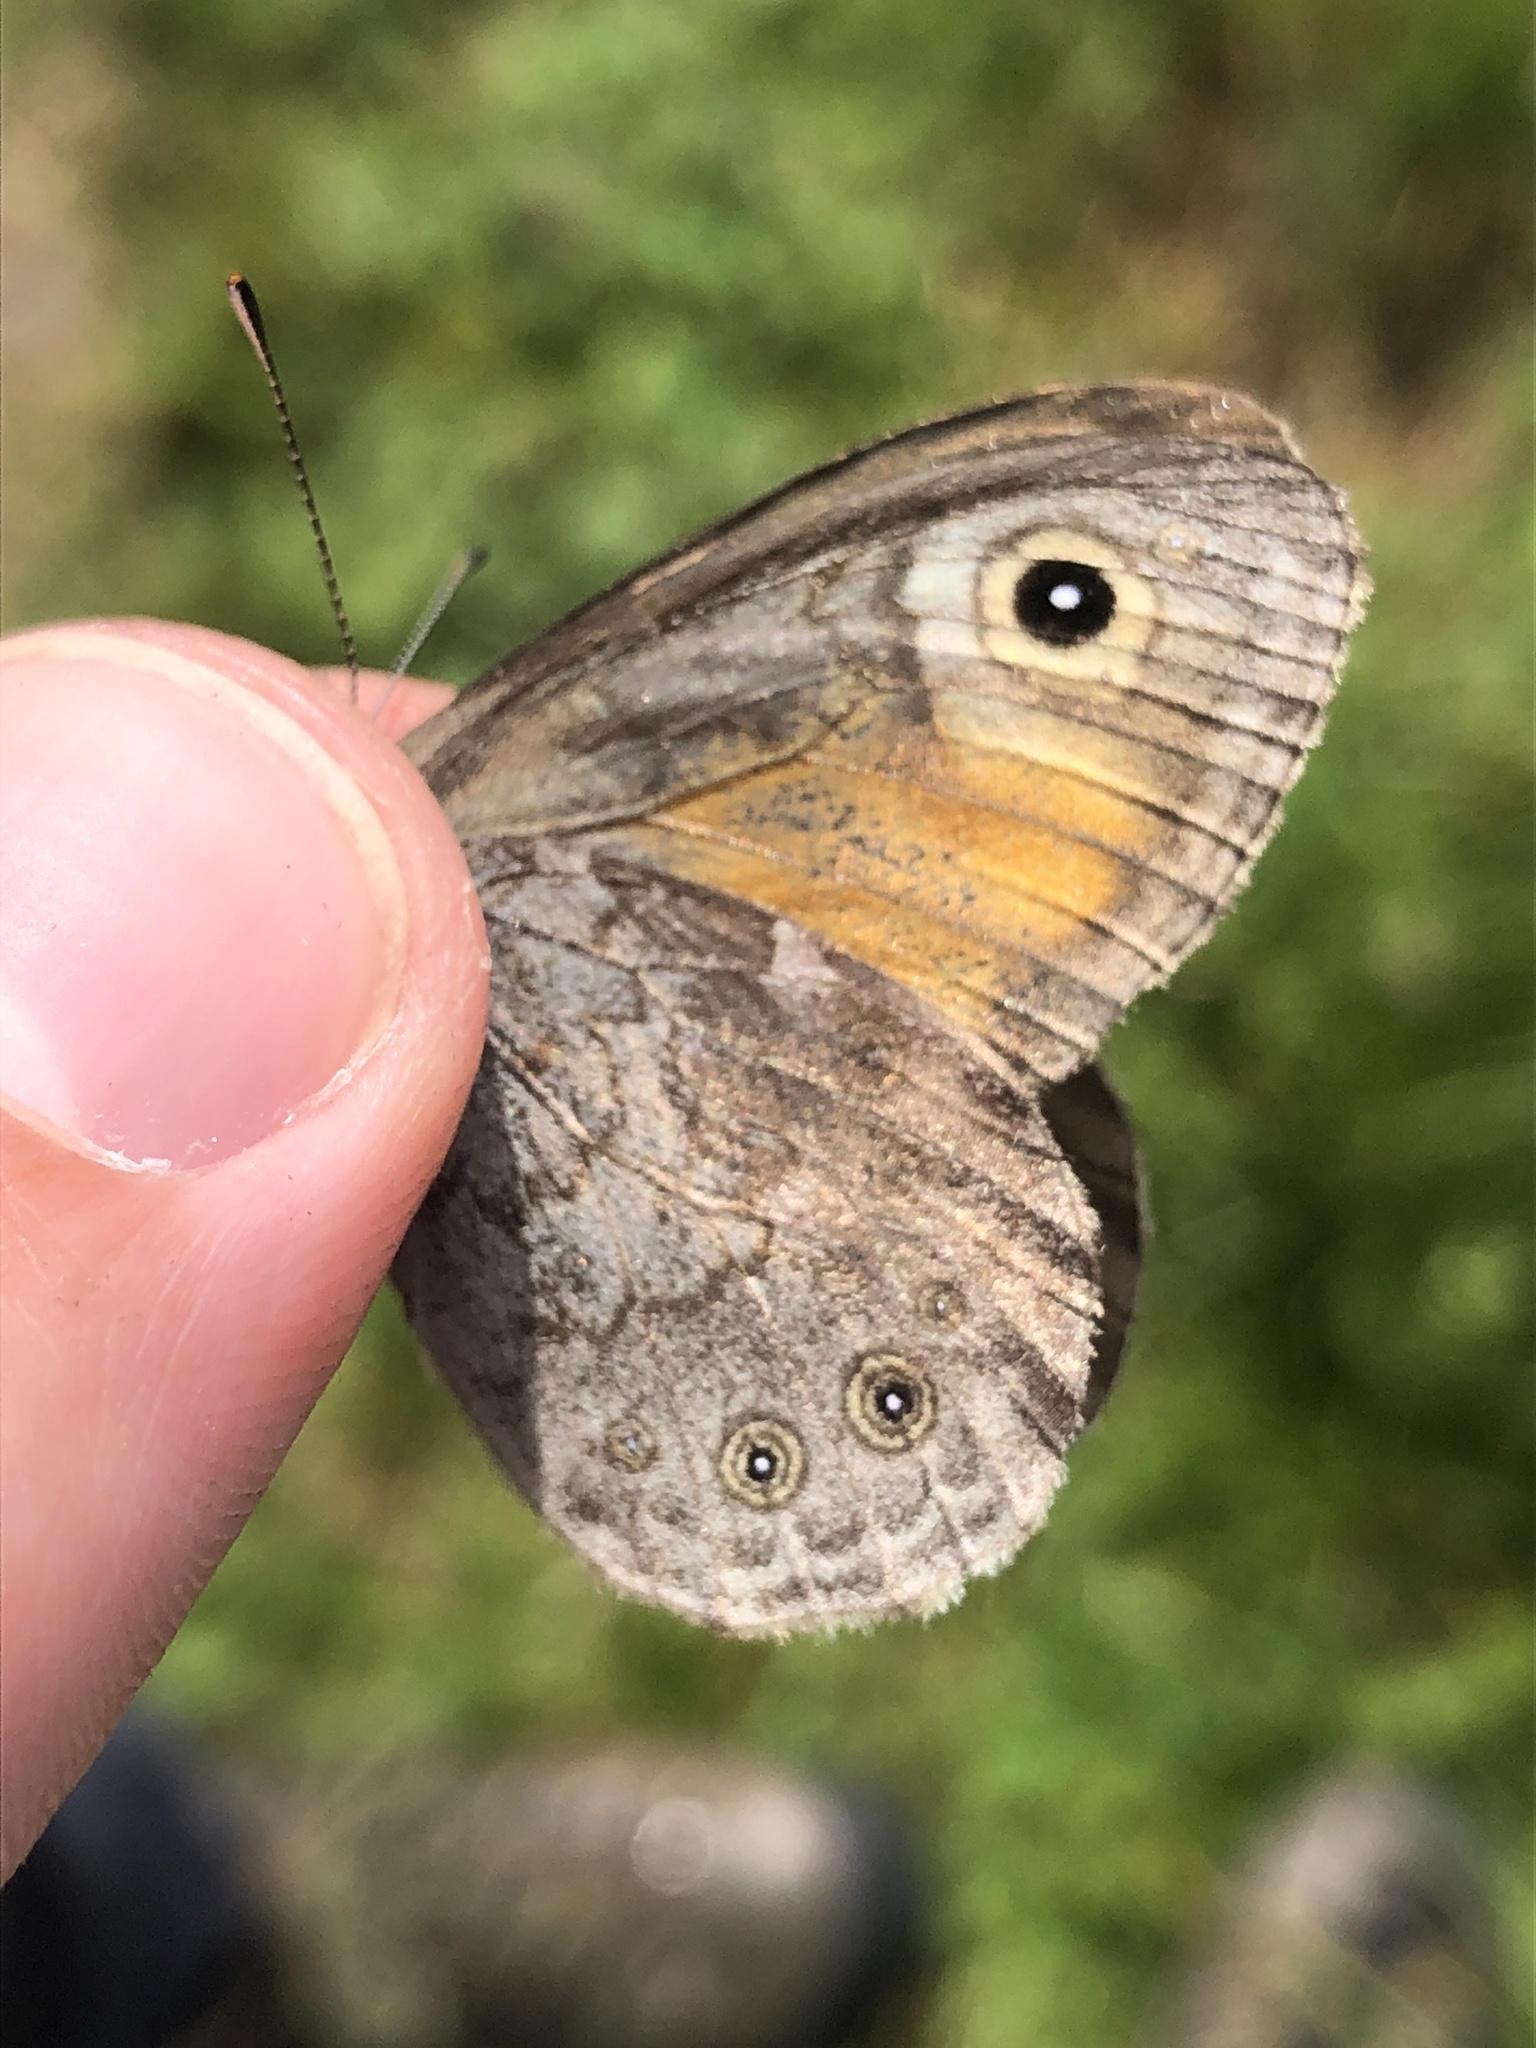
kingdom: Animalia
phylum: Arthropoda
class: Insecta
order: Lepidoptera
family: Nymphalidae
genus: Pararge
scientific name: Pararge Lasiommata maera
